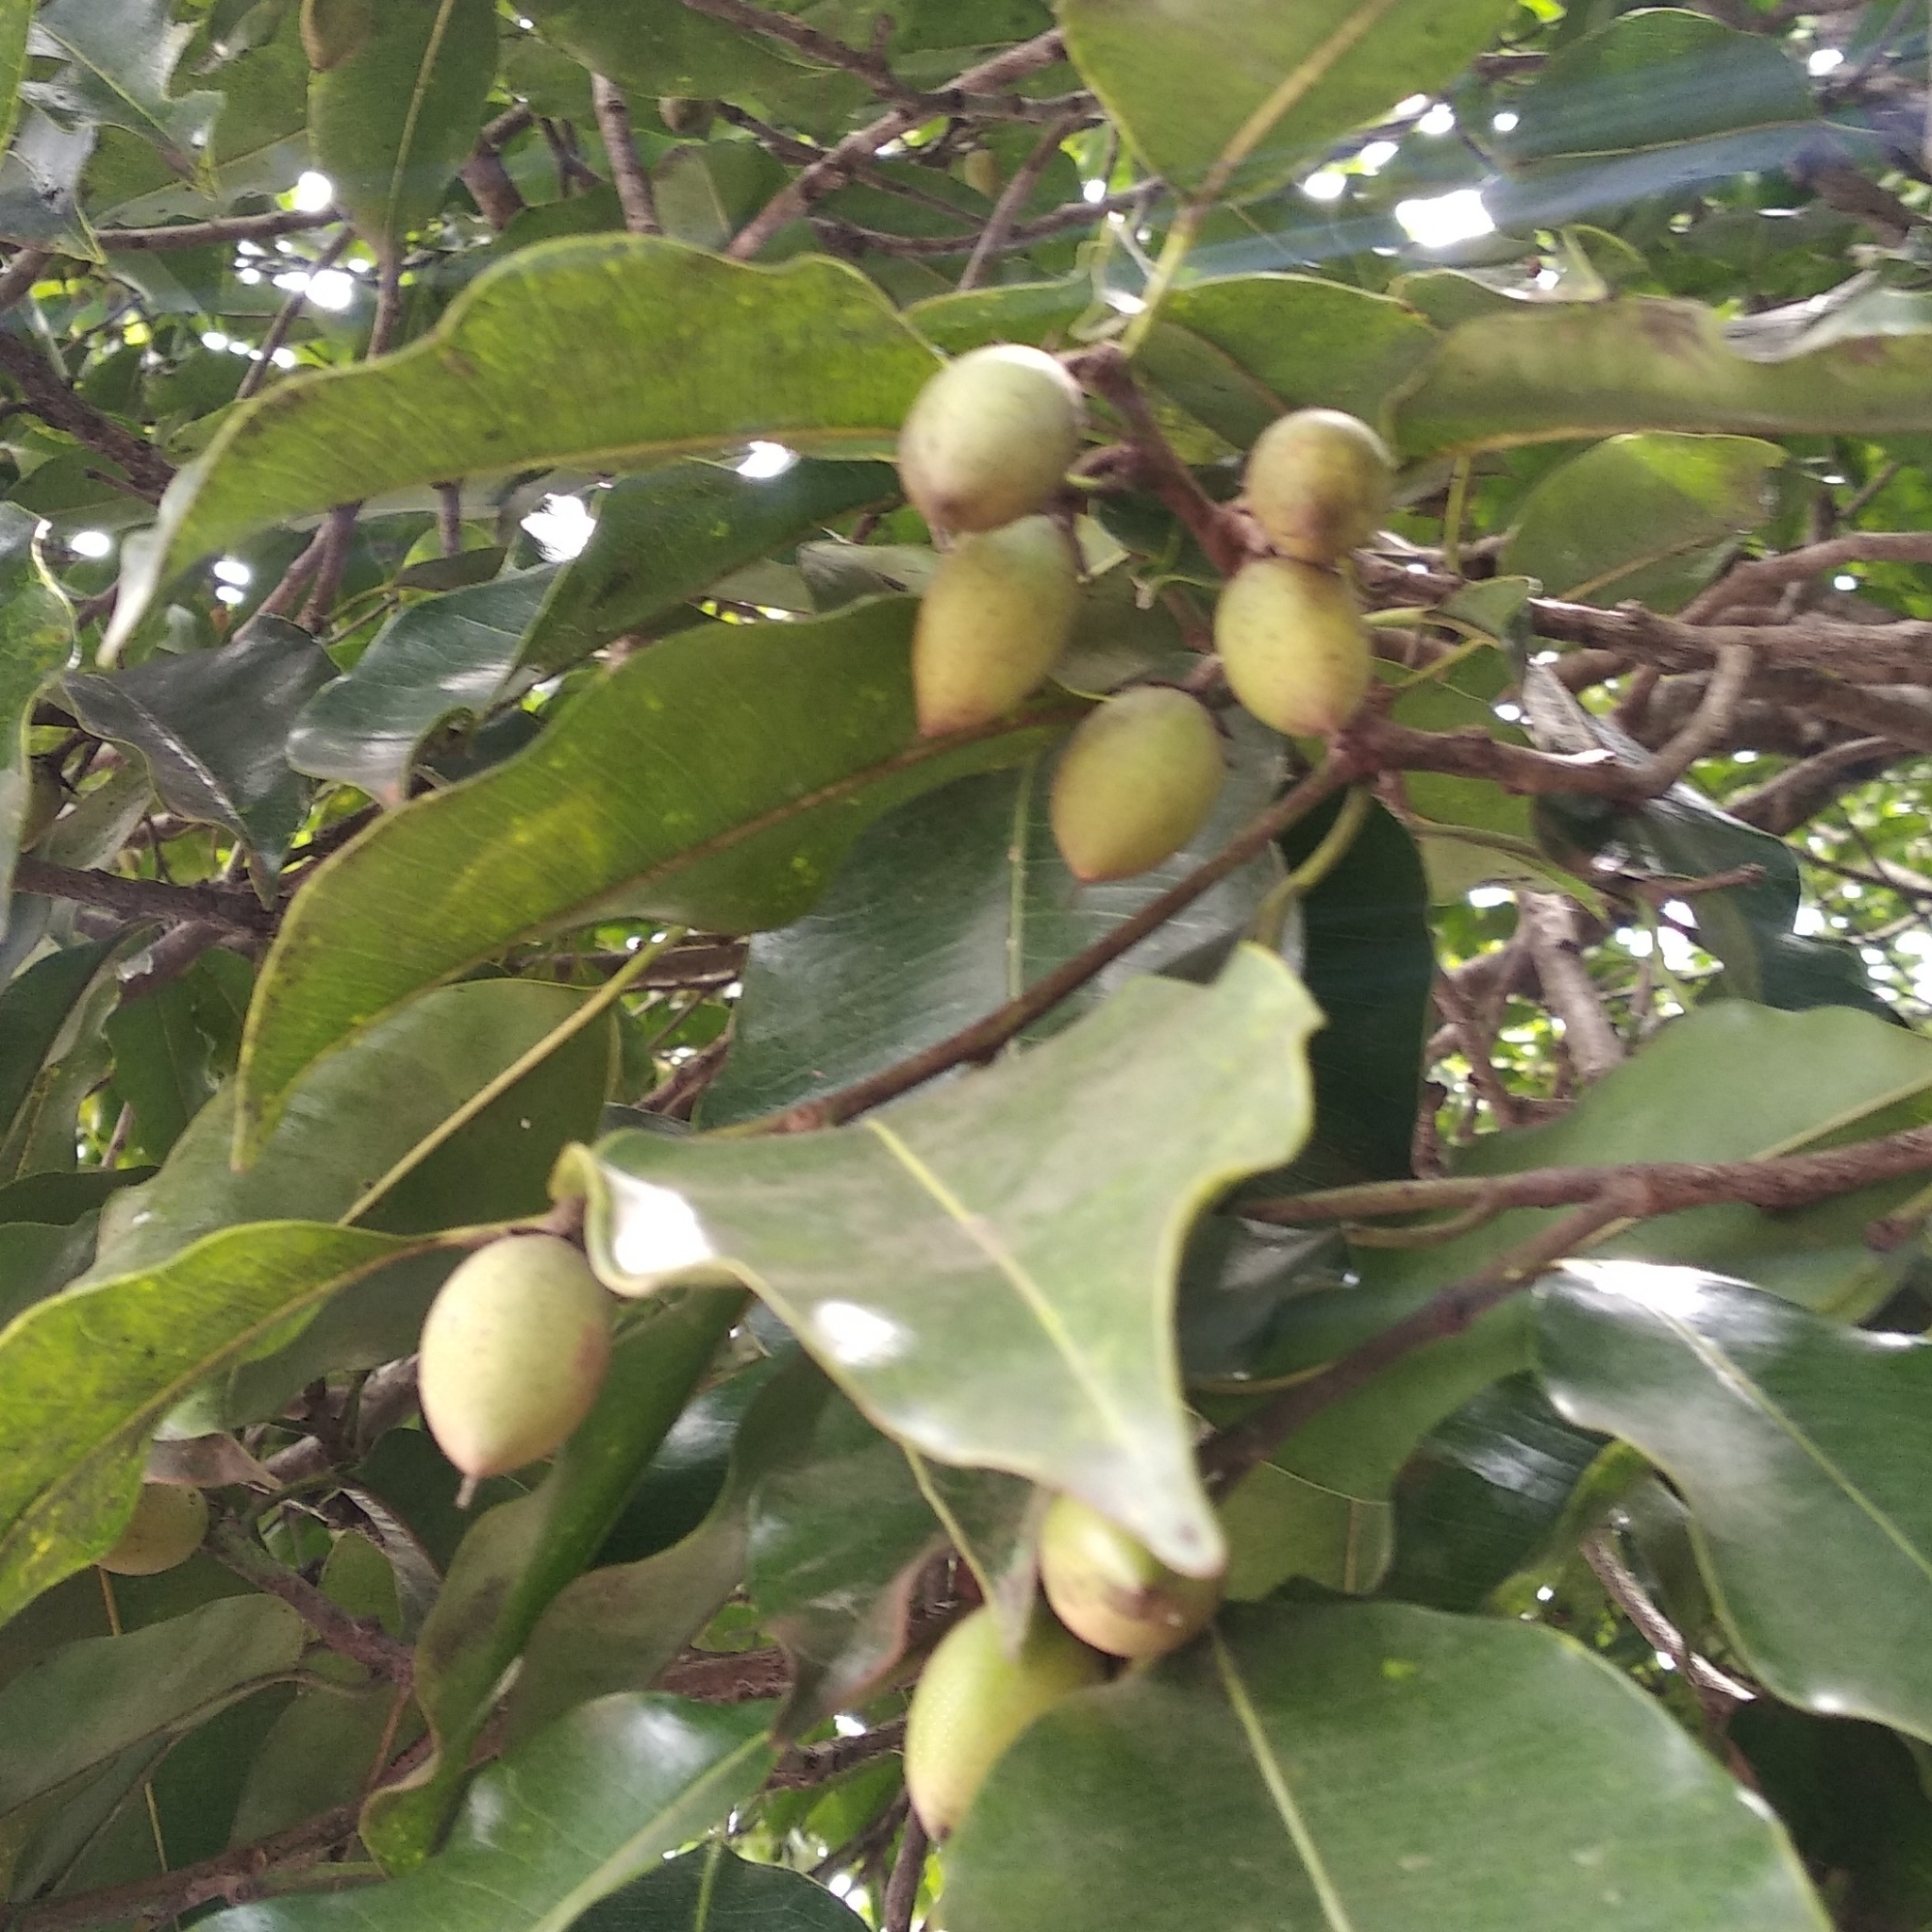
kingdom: Plantae
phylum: Tracheophyta
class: Magnoliopsida
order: Ericales
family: Sapotaceae
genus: Mimusops
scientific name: Mimusops elengi
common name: Spanish cherry
